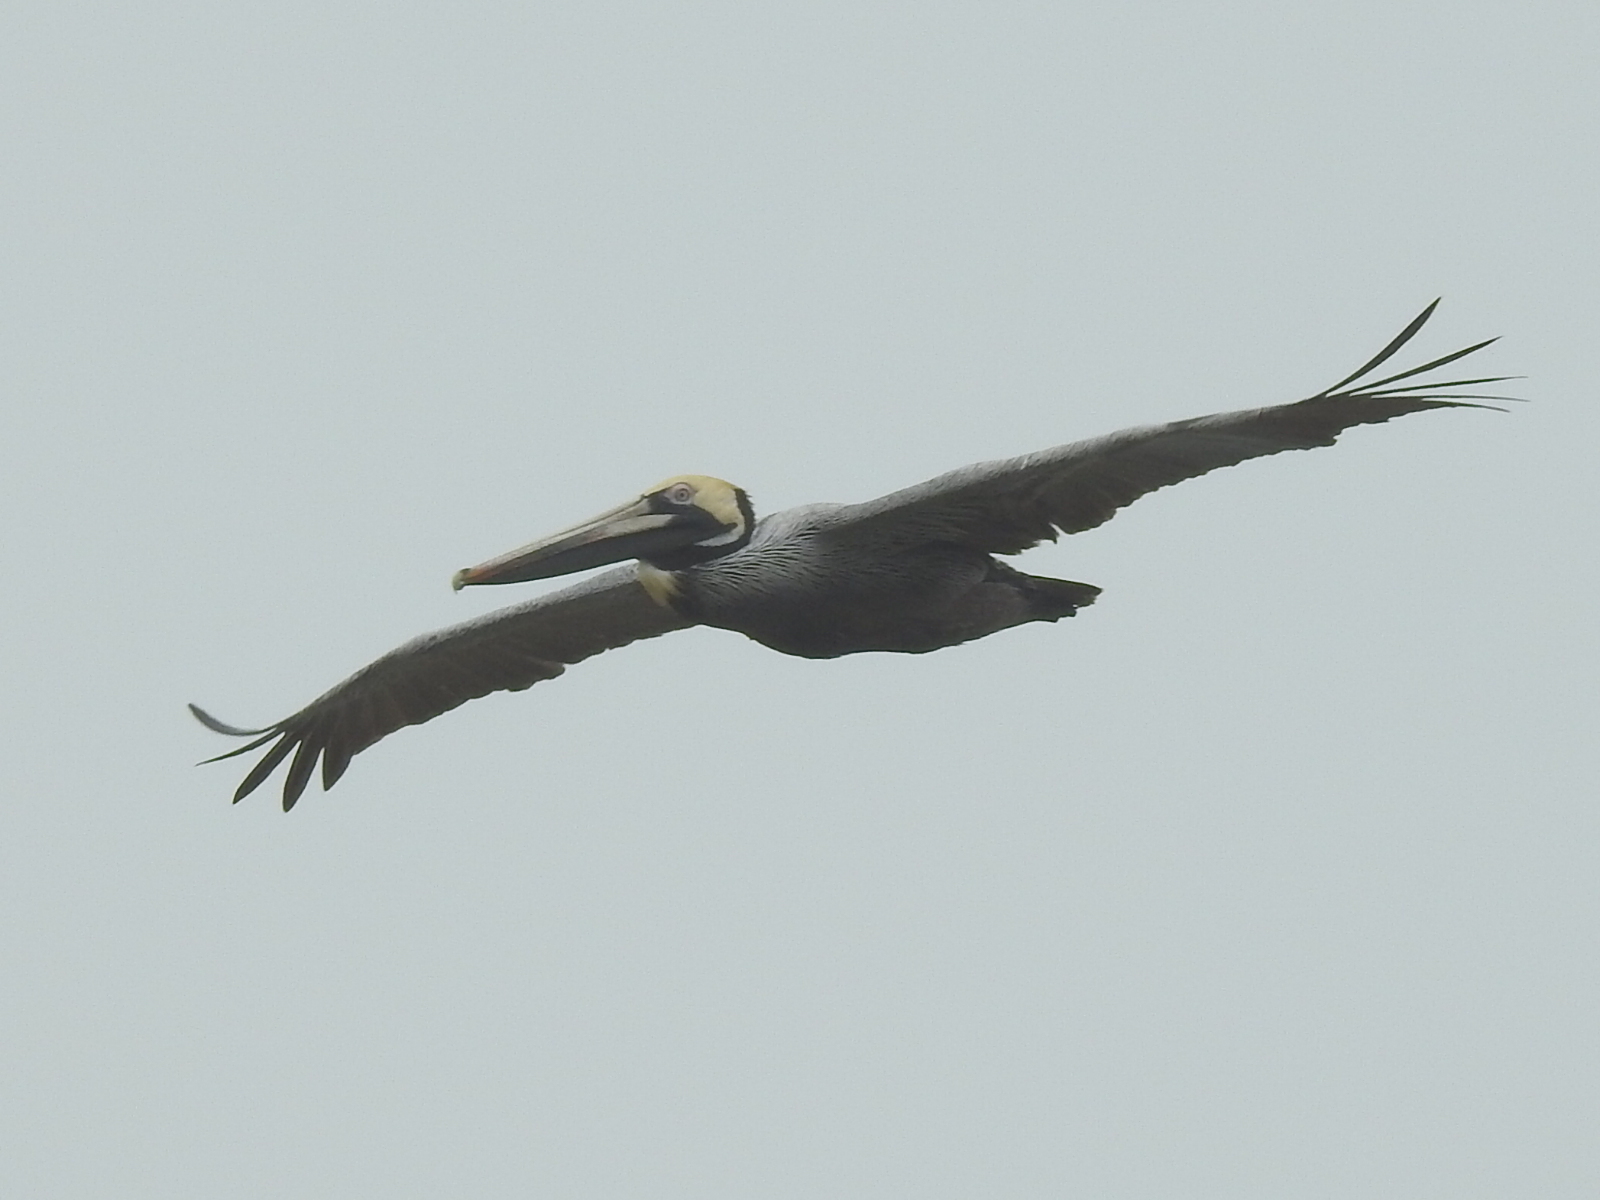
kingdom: Animalia
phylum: Chordata
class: Aves
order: Pelecaniformes
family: Pelecanidae
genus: Pelecanus
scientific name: Pelecanus occidentalis
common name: Brown pelican
